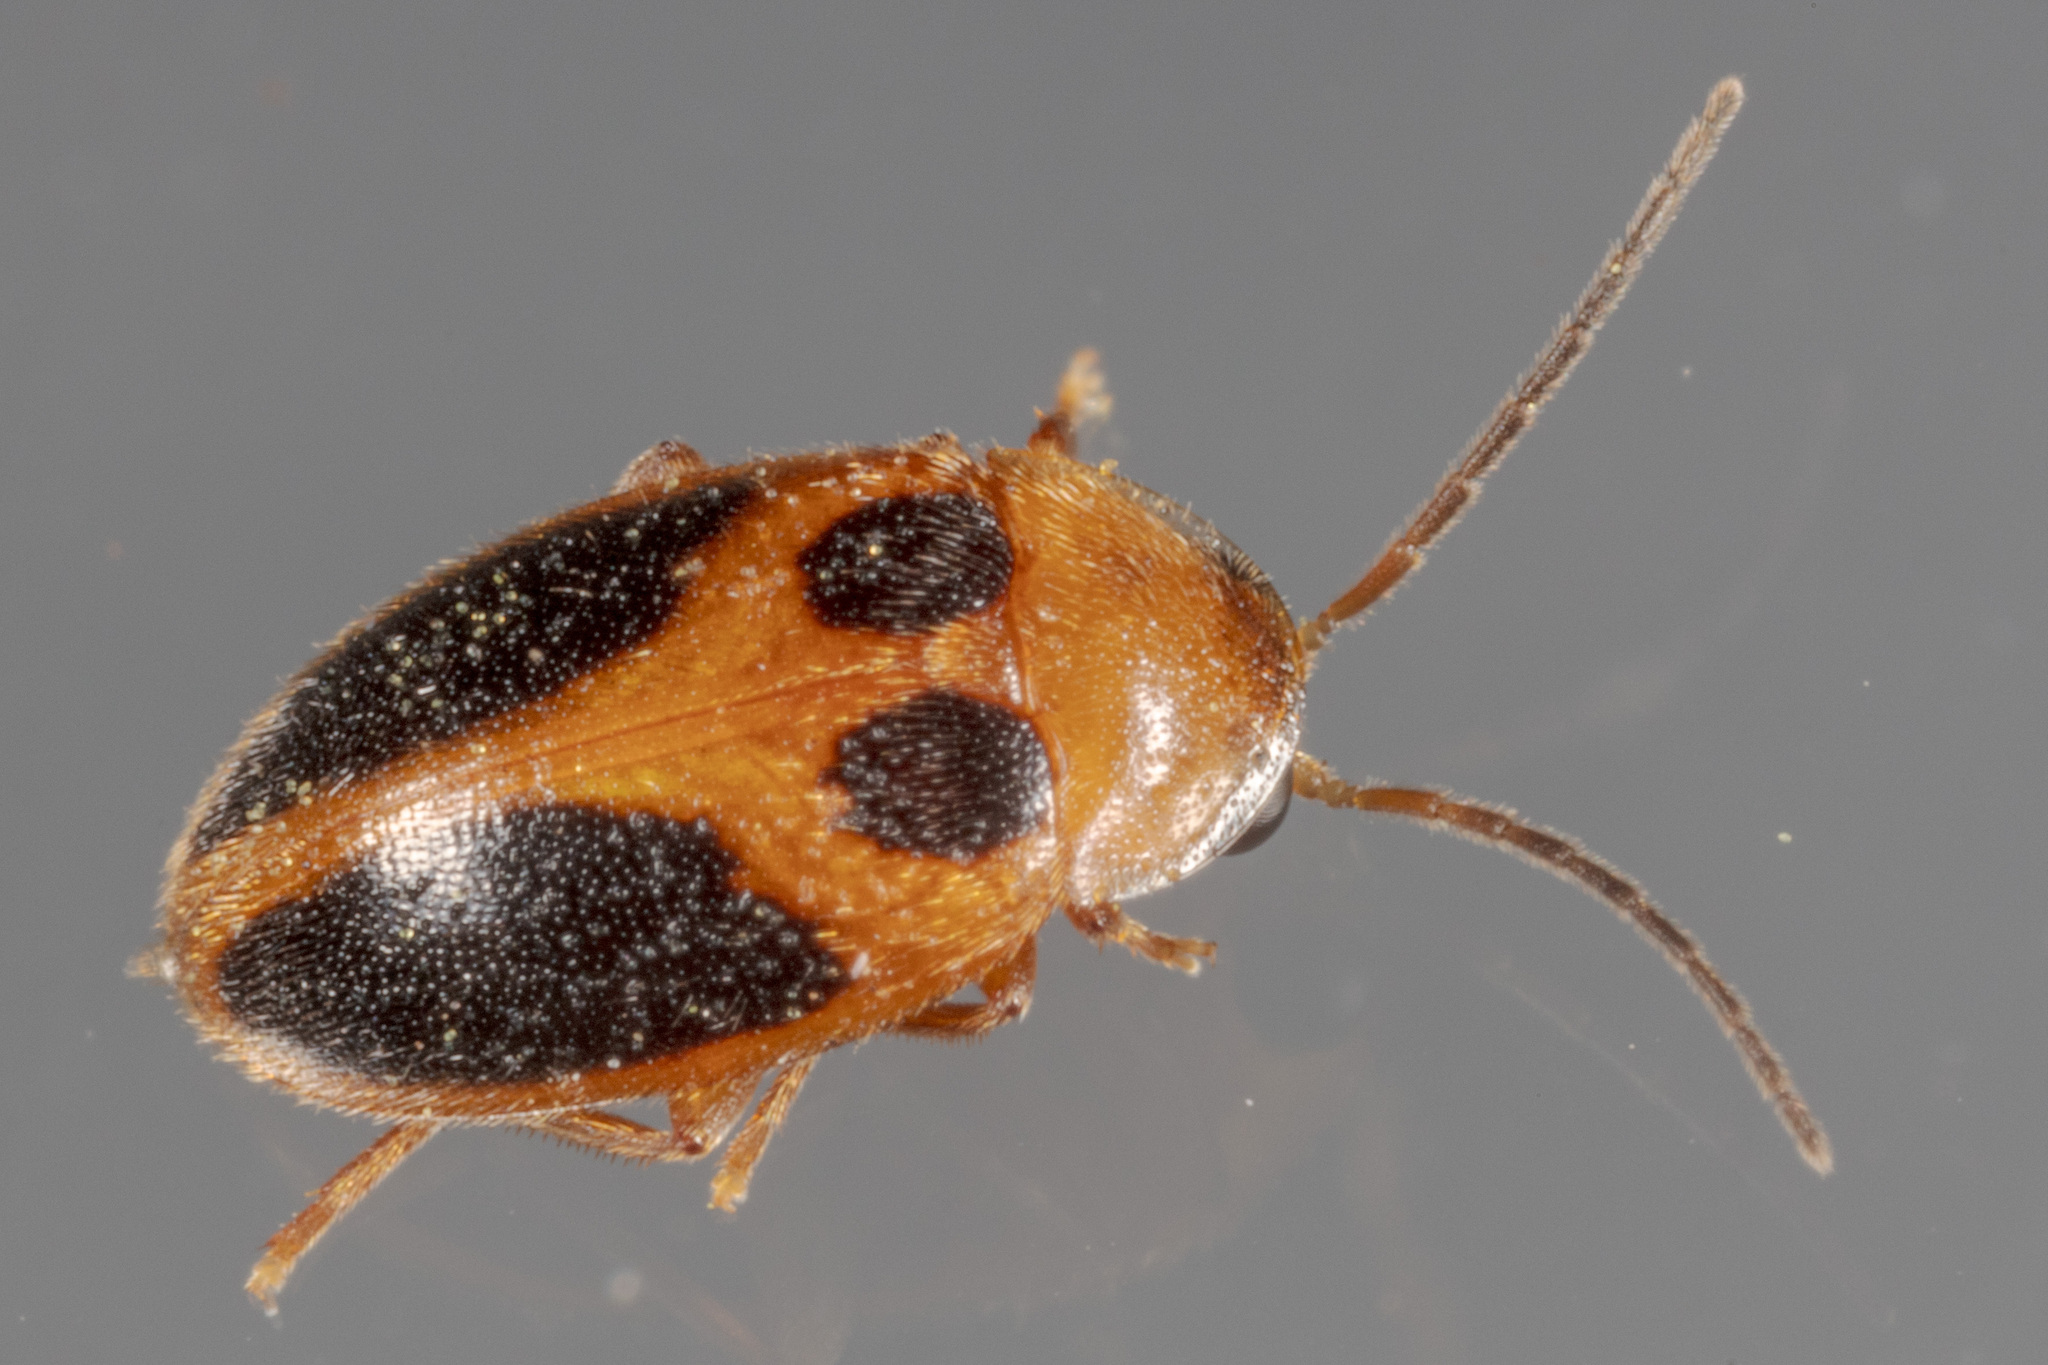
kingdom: Animalia
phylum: Arthropoda
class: Insecta
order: Coleoptera
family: Scirtidae
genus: Sacodes
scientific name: Sacodes pulchella
